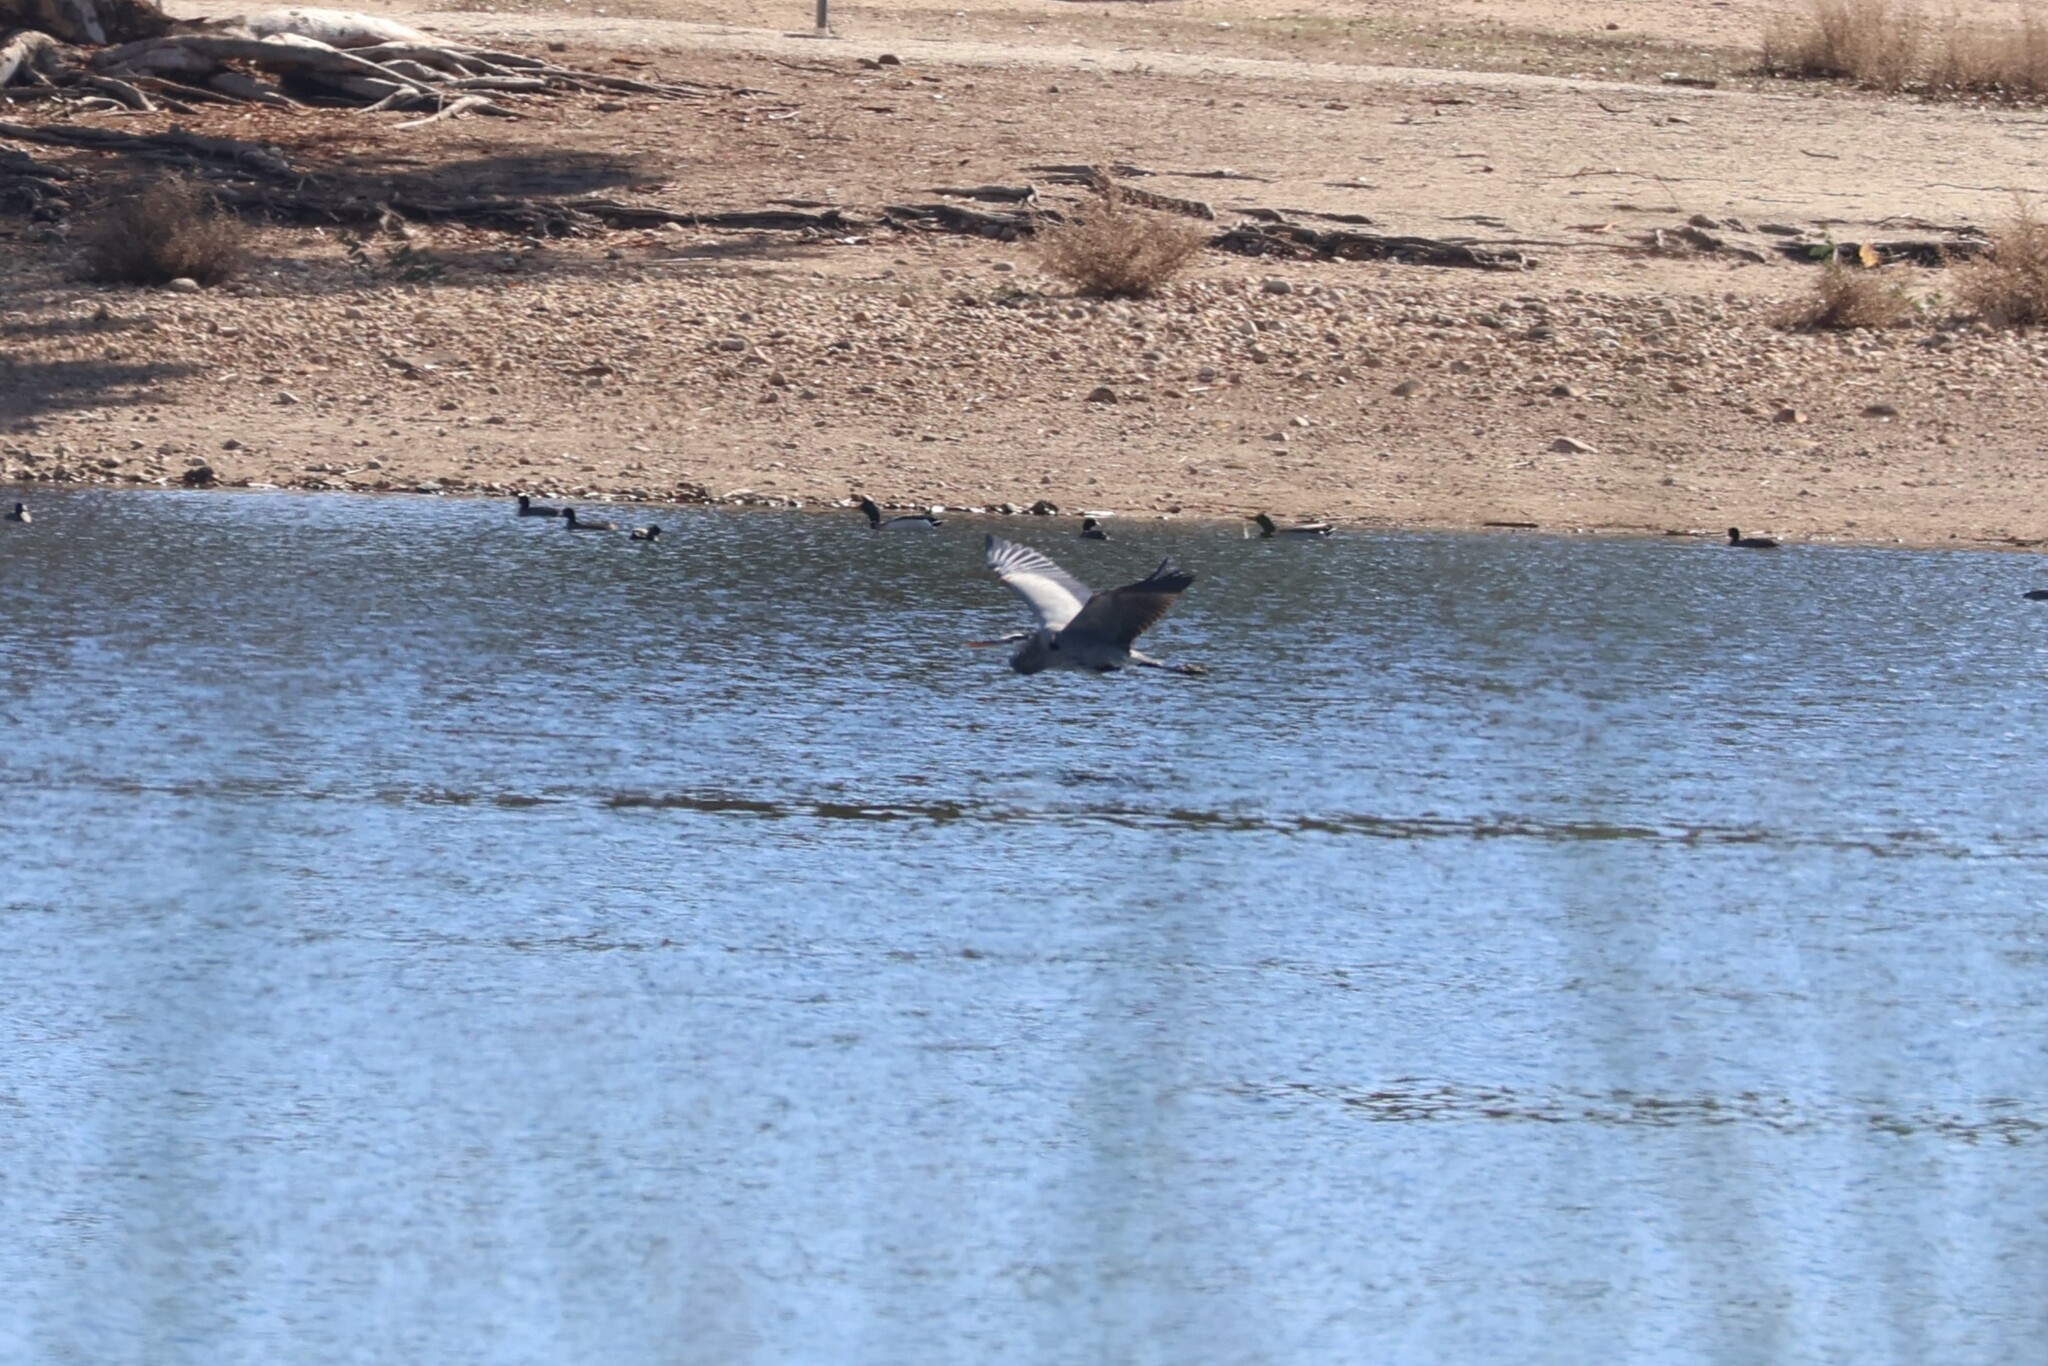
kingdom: Animalia
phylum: Chordata
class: Aves
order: Pelecaniformes
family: Ardeidae
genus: Ardea
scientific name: Ardea herodias
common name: Great blue heron
